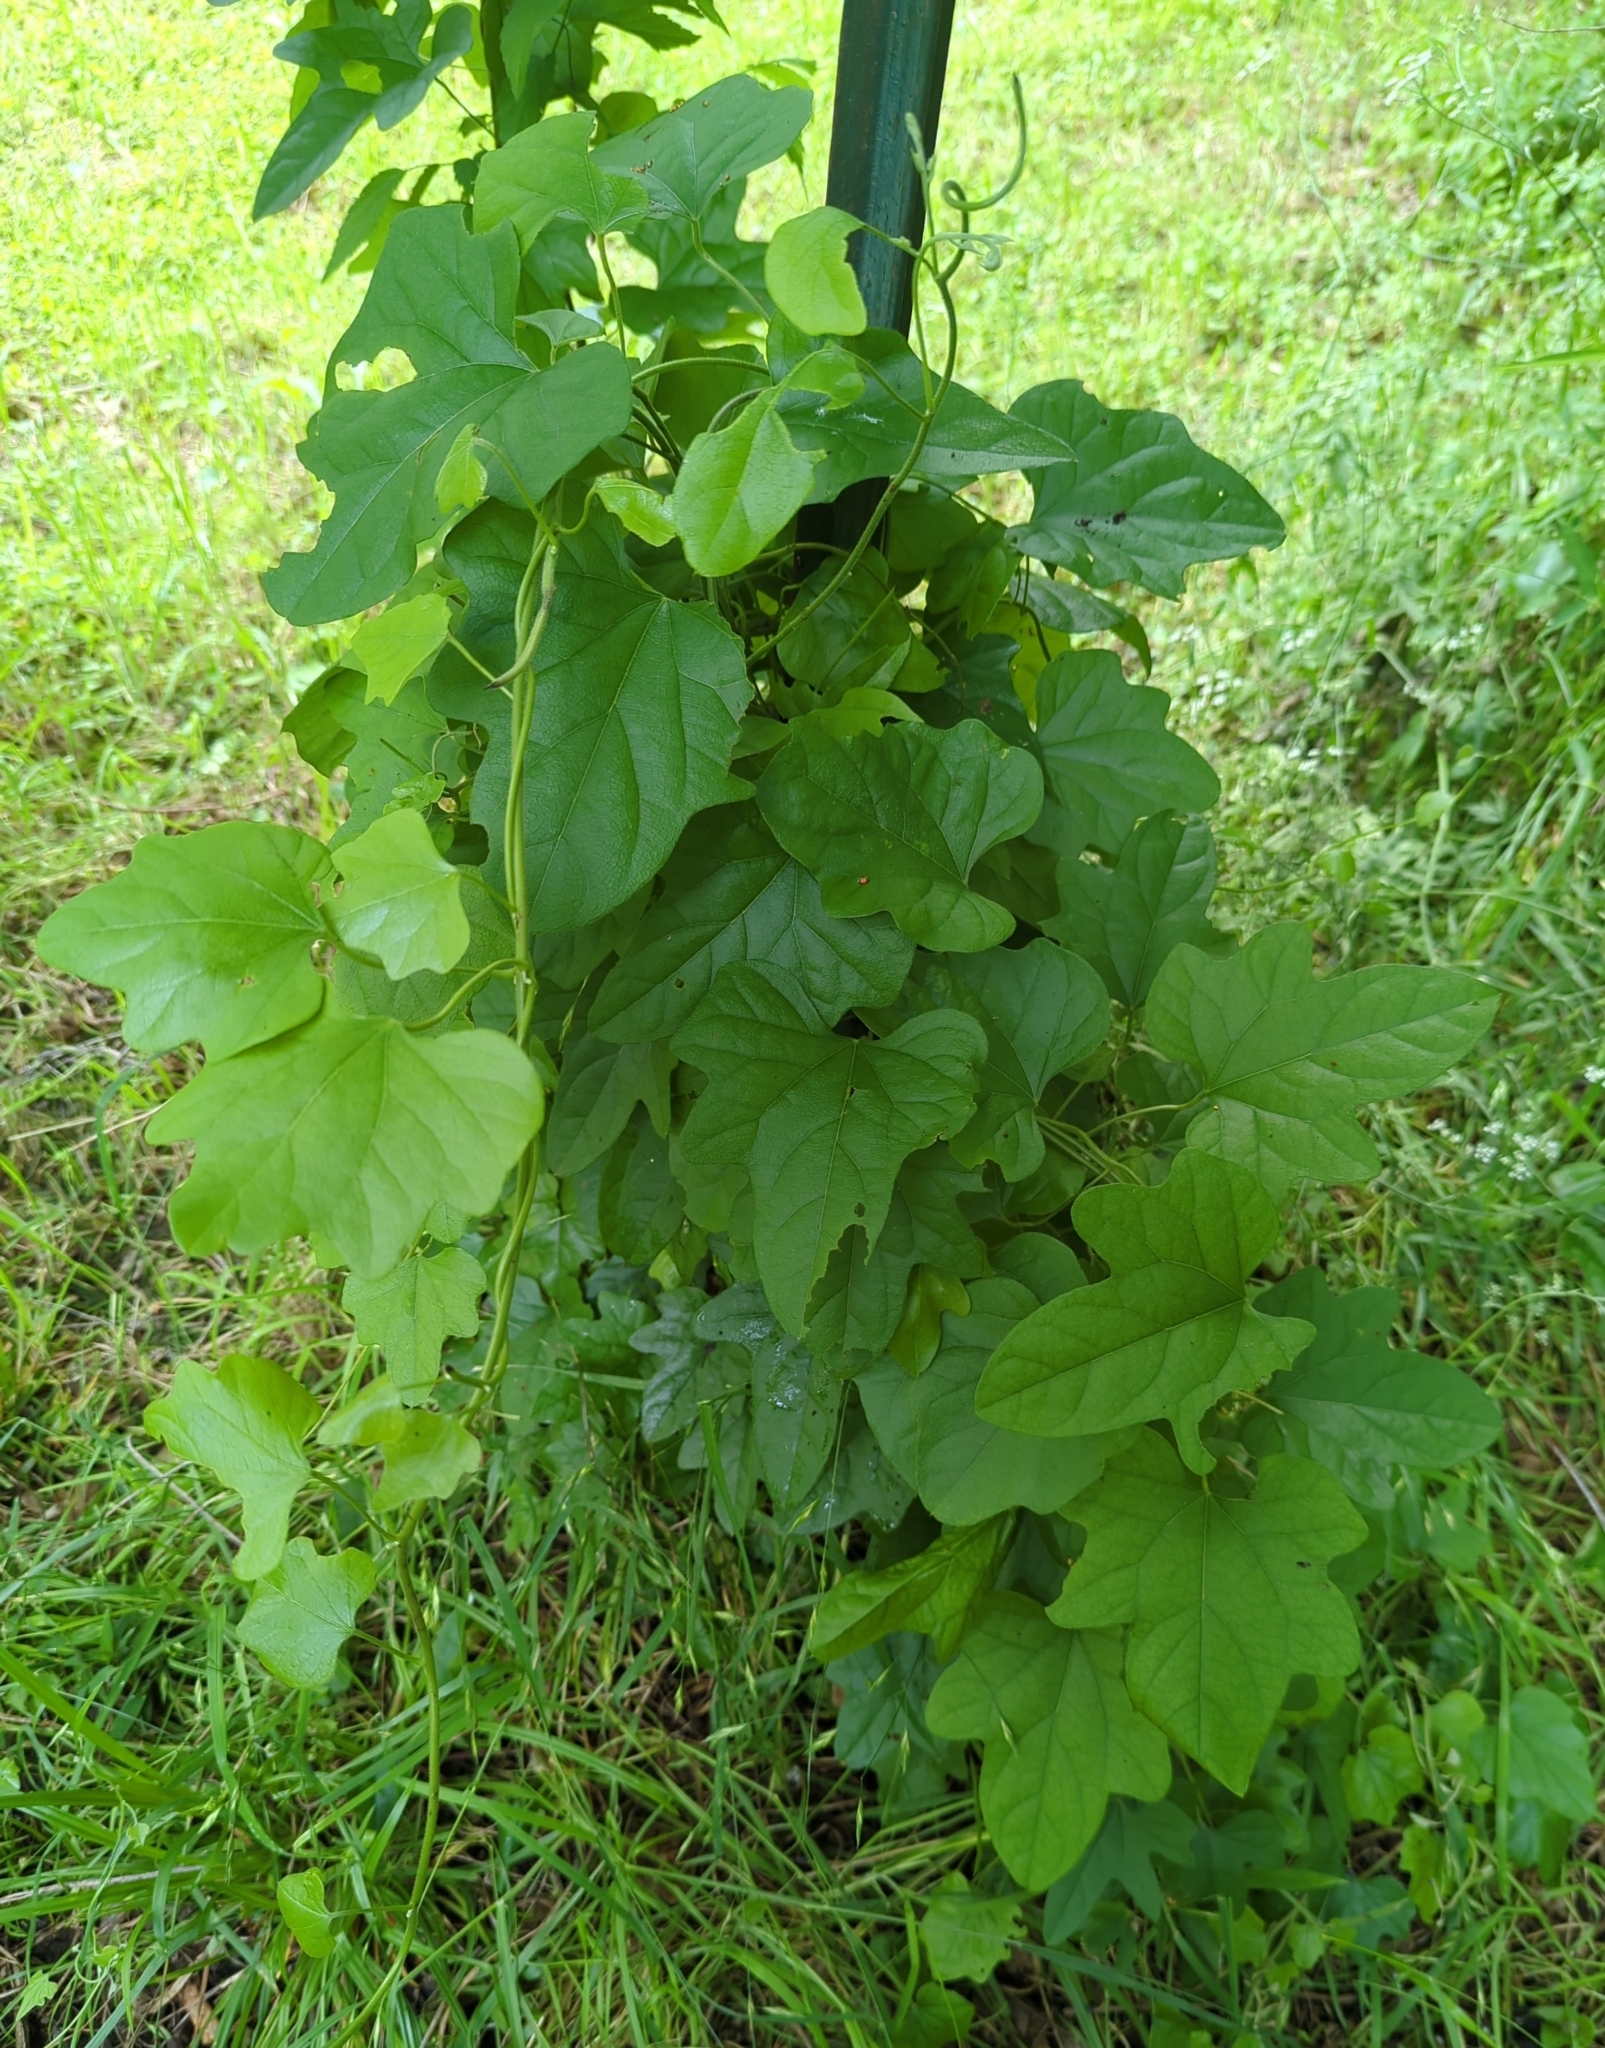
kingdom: Plantae
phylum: Tracheophyta
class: Magnoliopsida
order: Ranunculales
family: Menispermaceae
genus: Cocculus
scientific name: Cocculus carolinus
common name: Carolina moonseed
